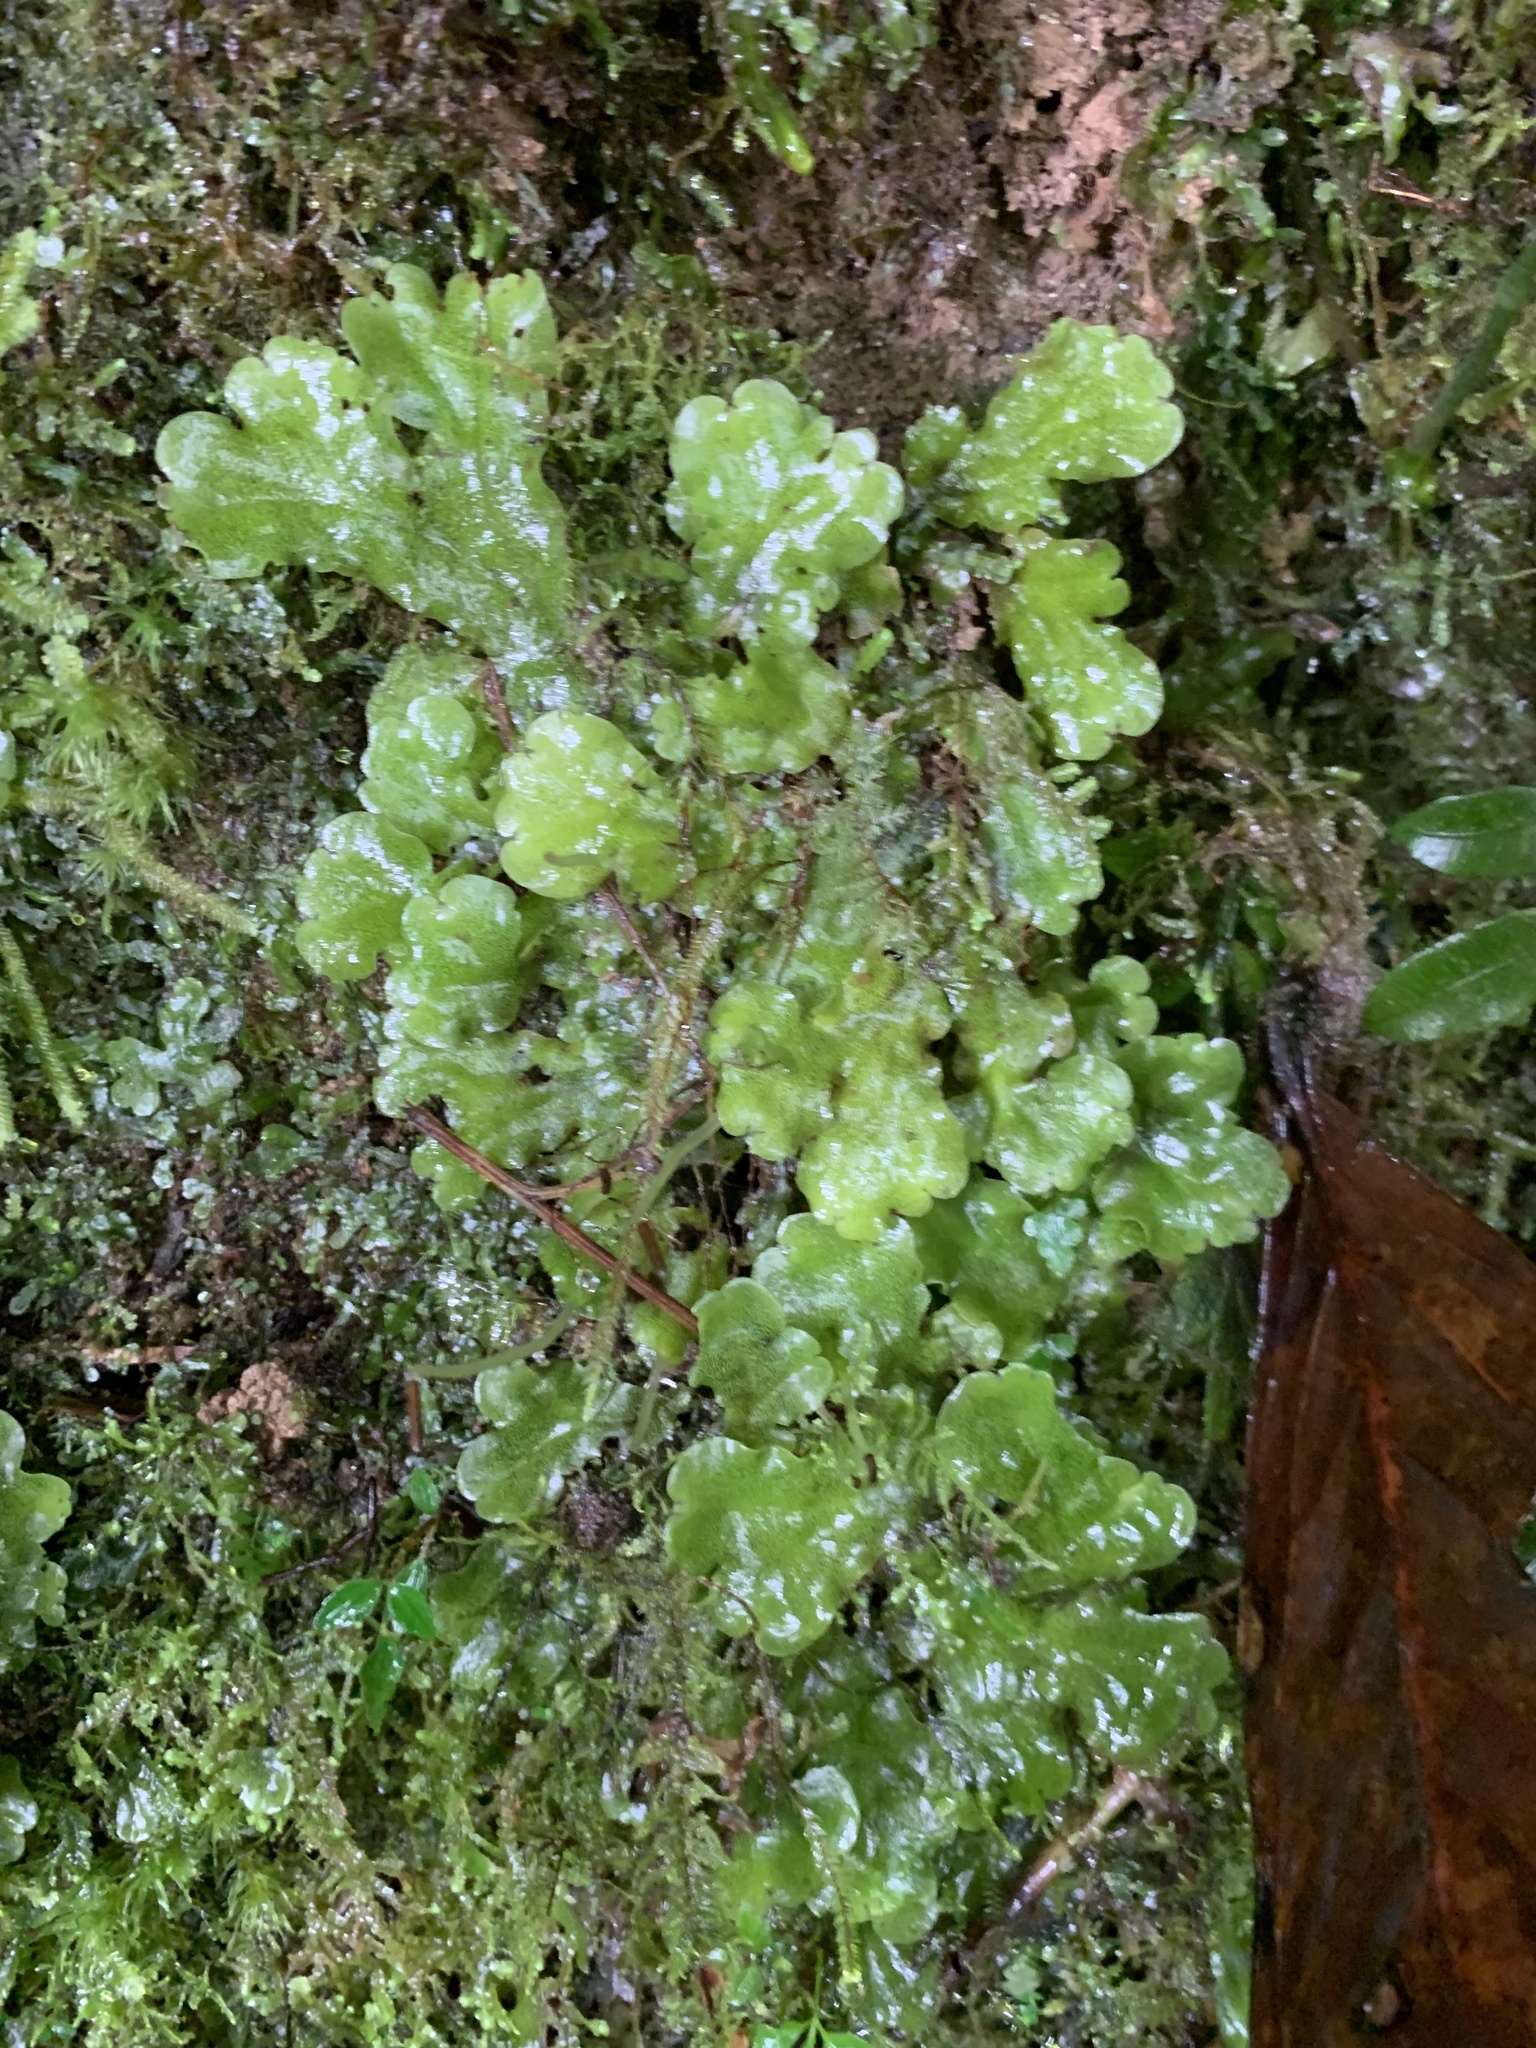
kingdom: Plantae
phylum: Marchantiophyta
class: Marchantiopsida
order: Marchantiales
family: Monocleaceae
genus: Monoclea
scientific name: Monoclea gottschei
